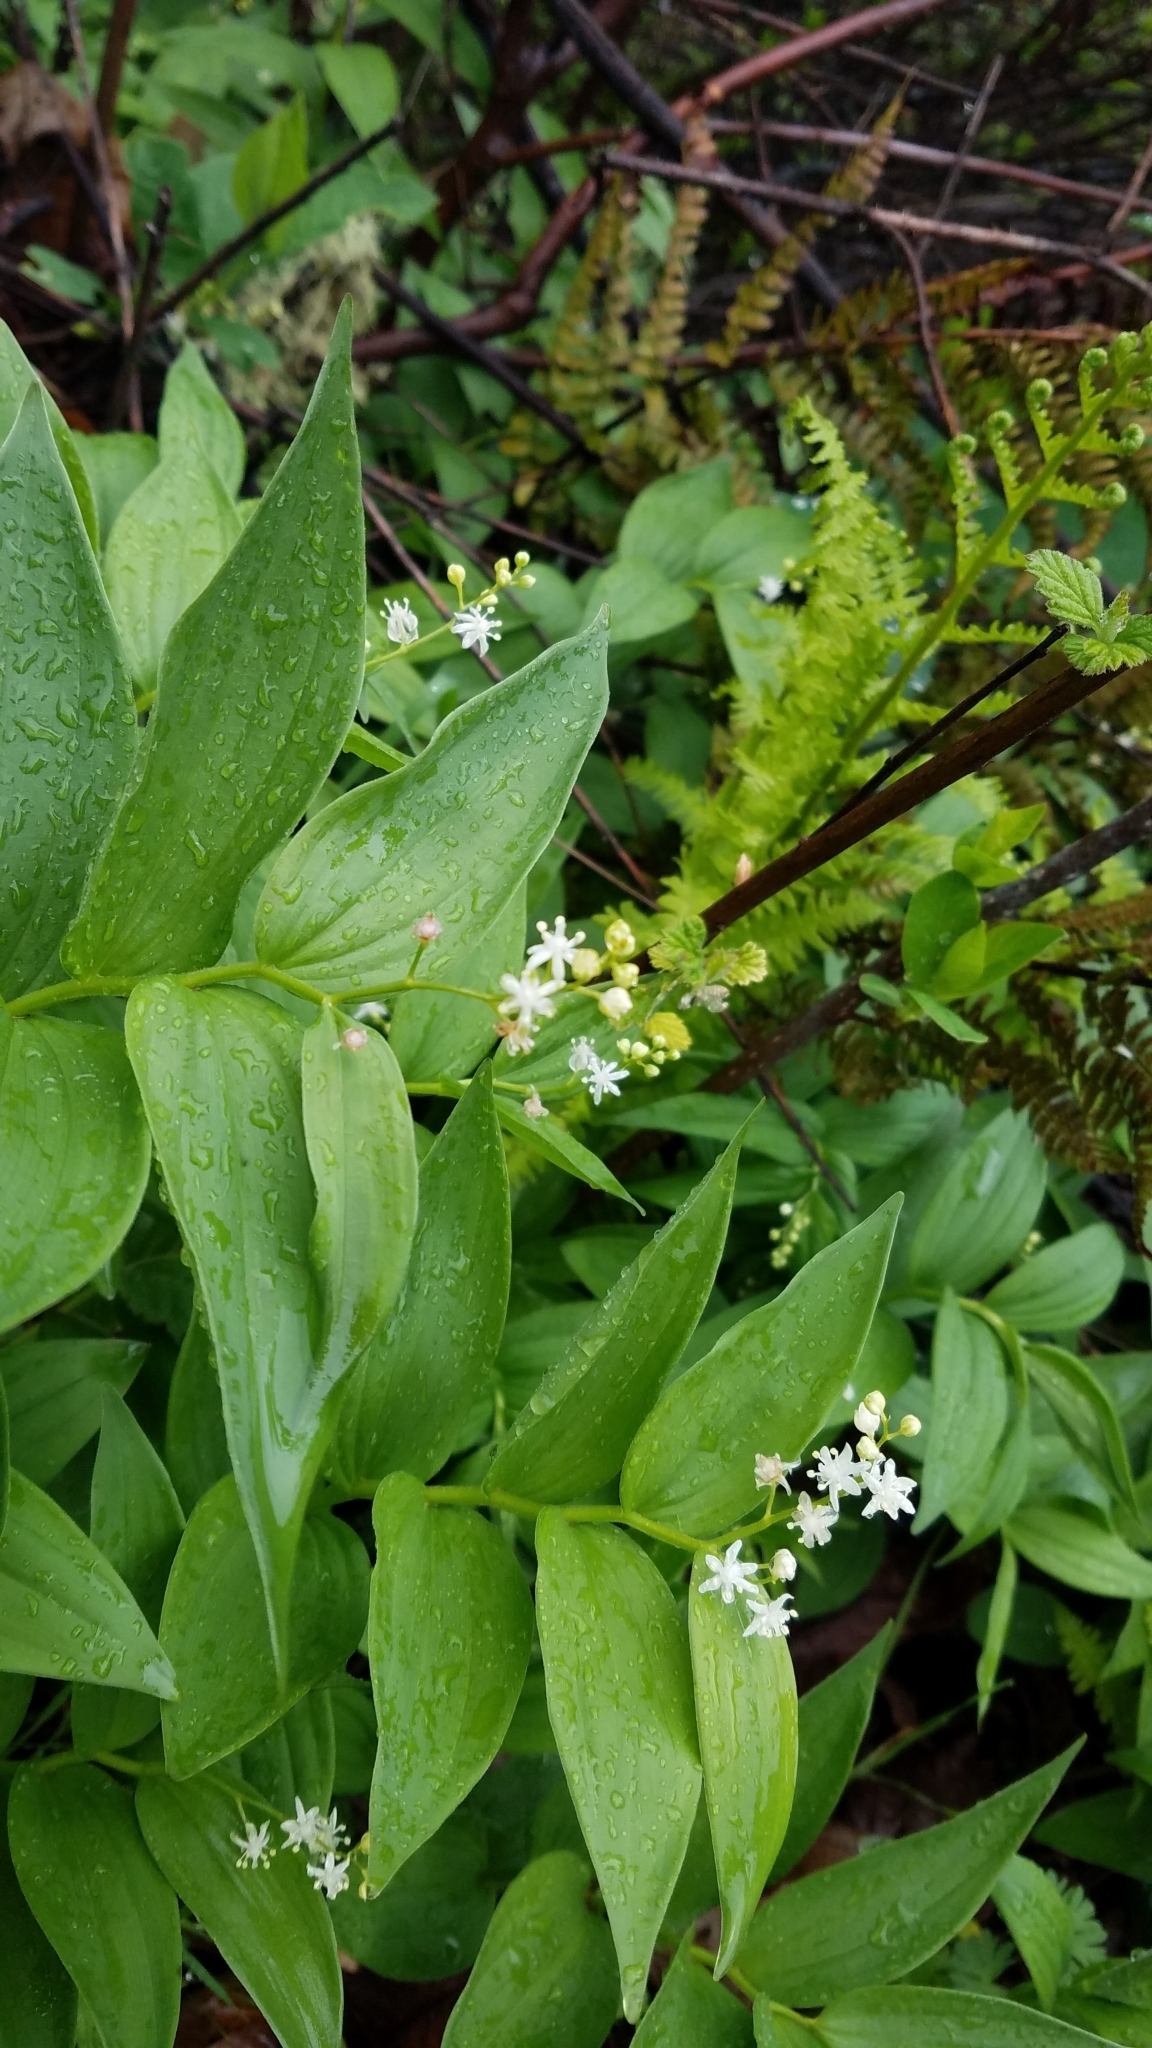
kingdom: Plantae
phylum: Tracheophyta
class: Liliopsida
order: Asparagales
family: Asparagaceae
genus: Maianthemum
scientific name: Maianthemum stellatum
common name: Little false solomon's seal
